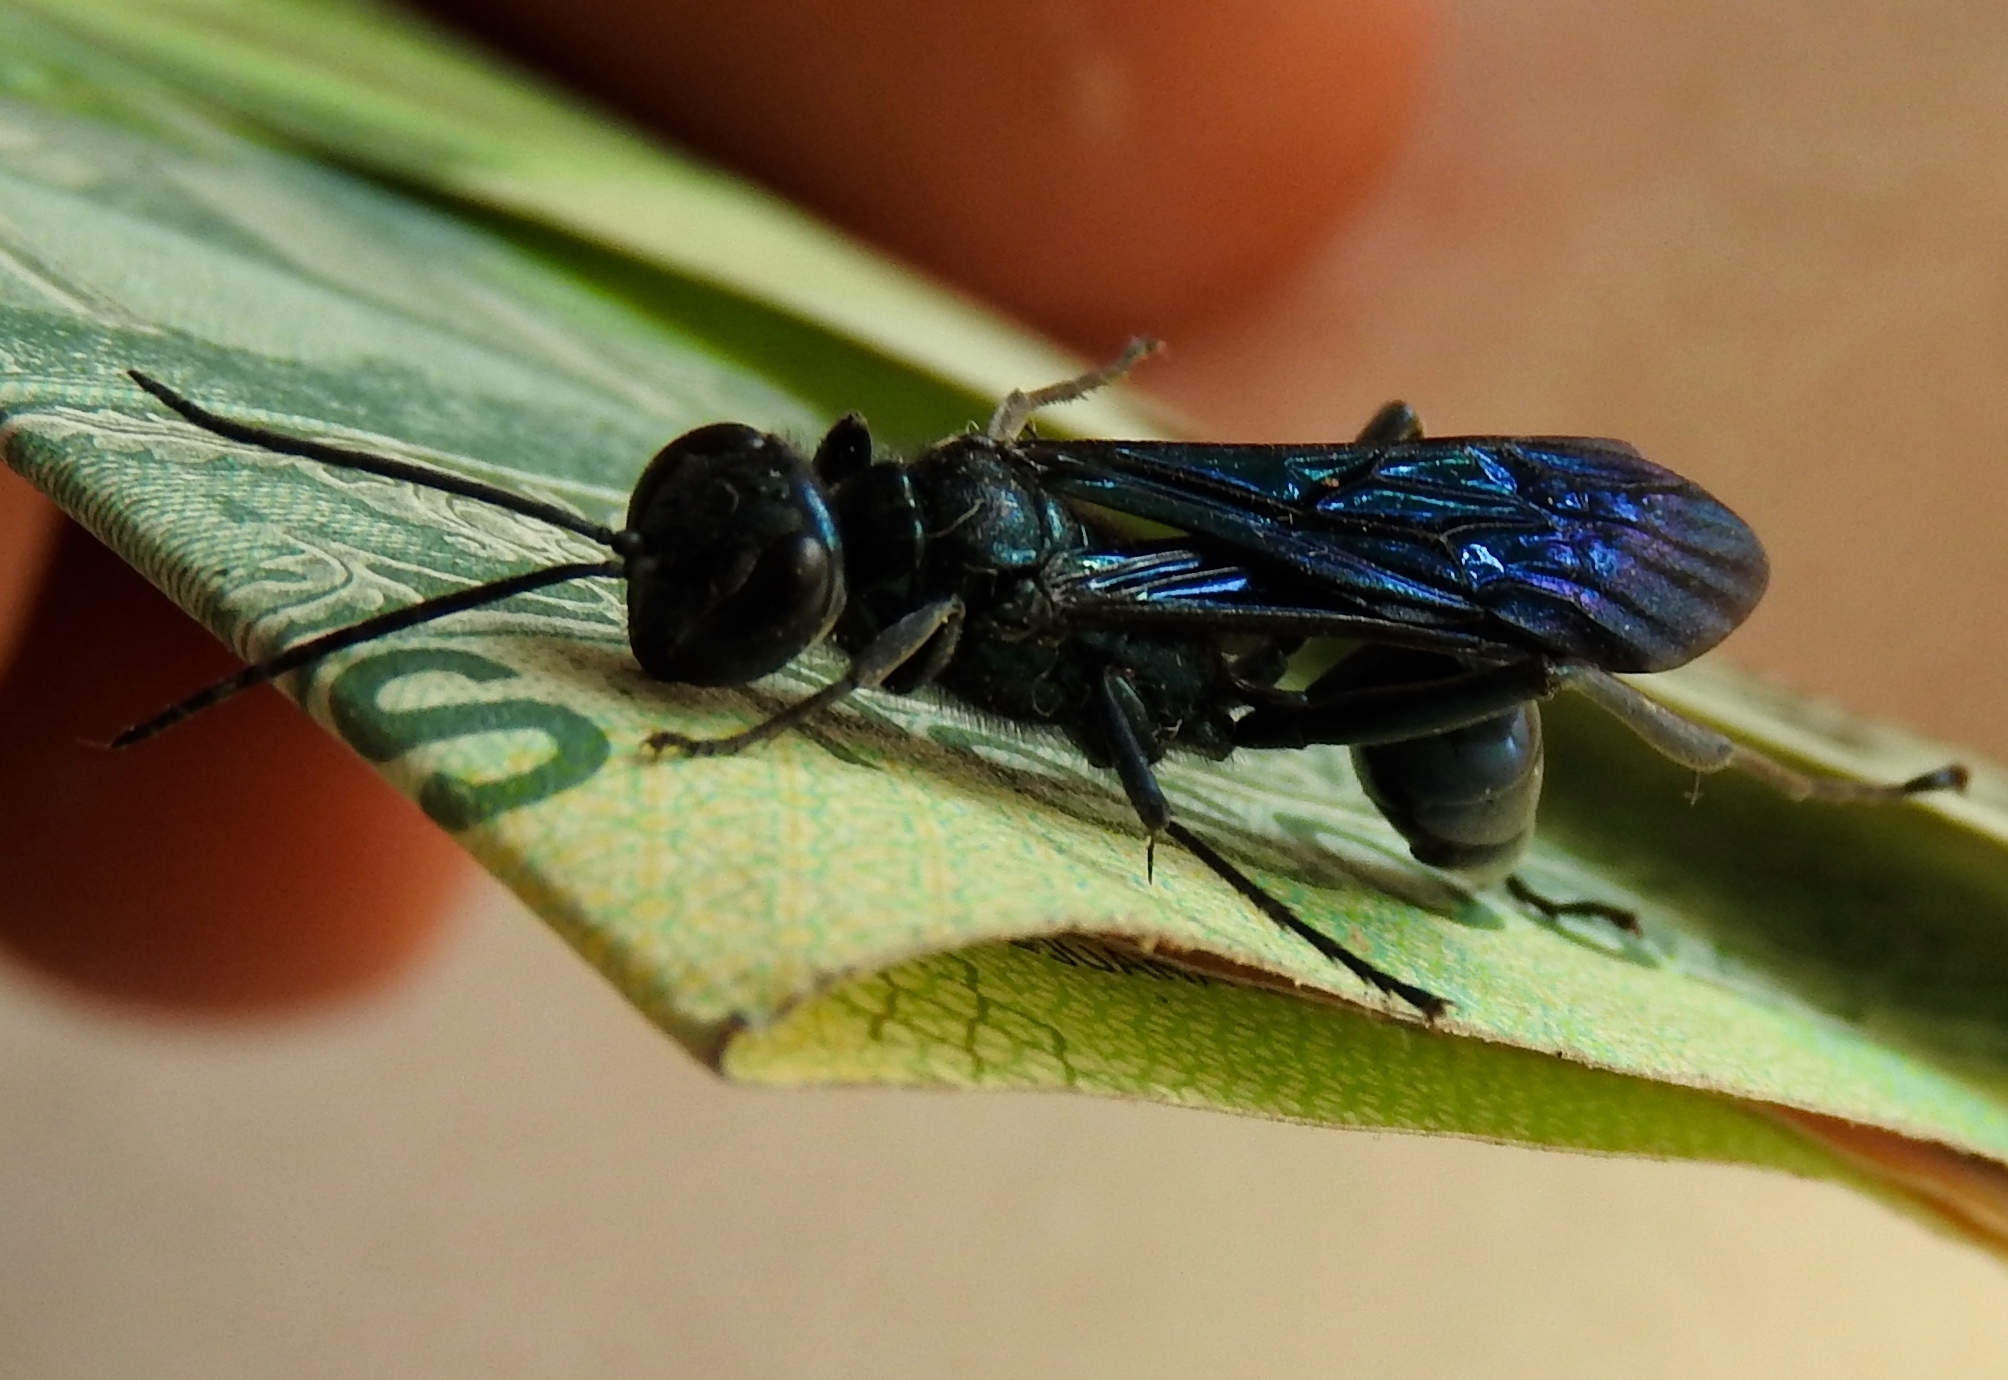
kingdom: Animalia
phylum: Arthropoda
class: Insecta
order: Hymenoptera
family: Sphecidae
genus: Chalybion
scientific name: Chalybion californicum
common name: Mud dauber
